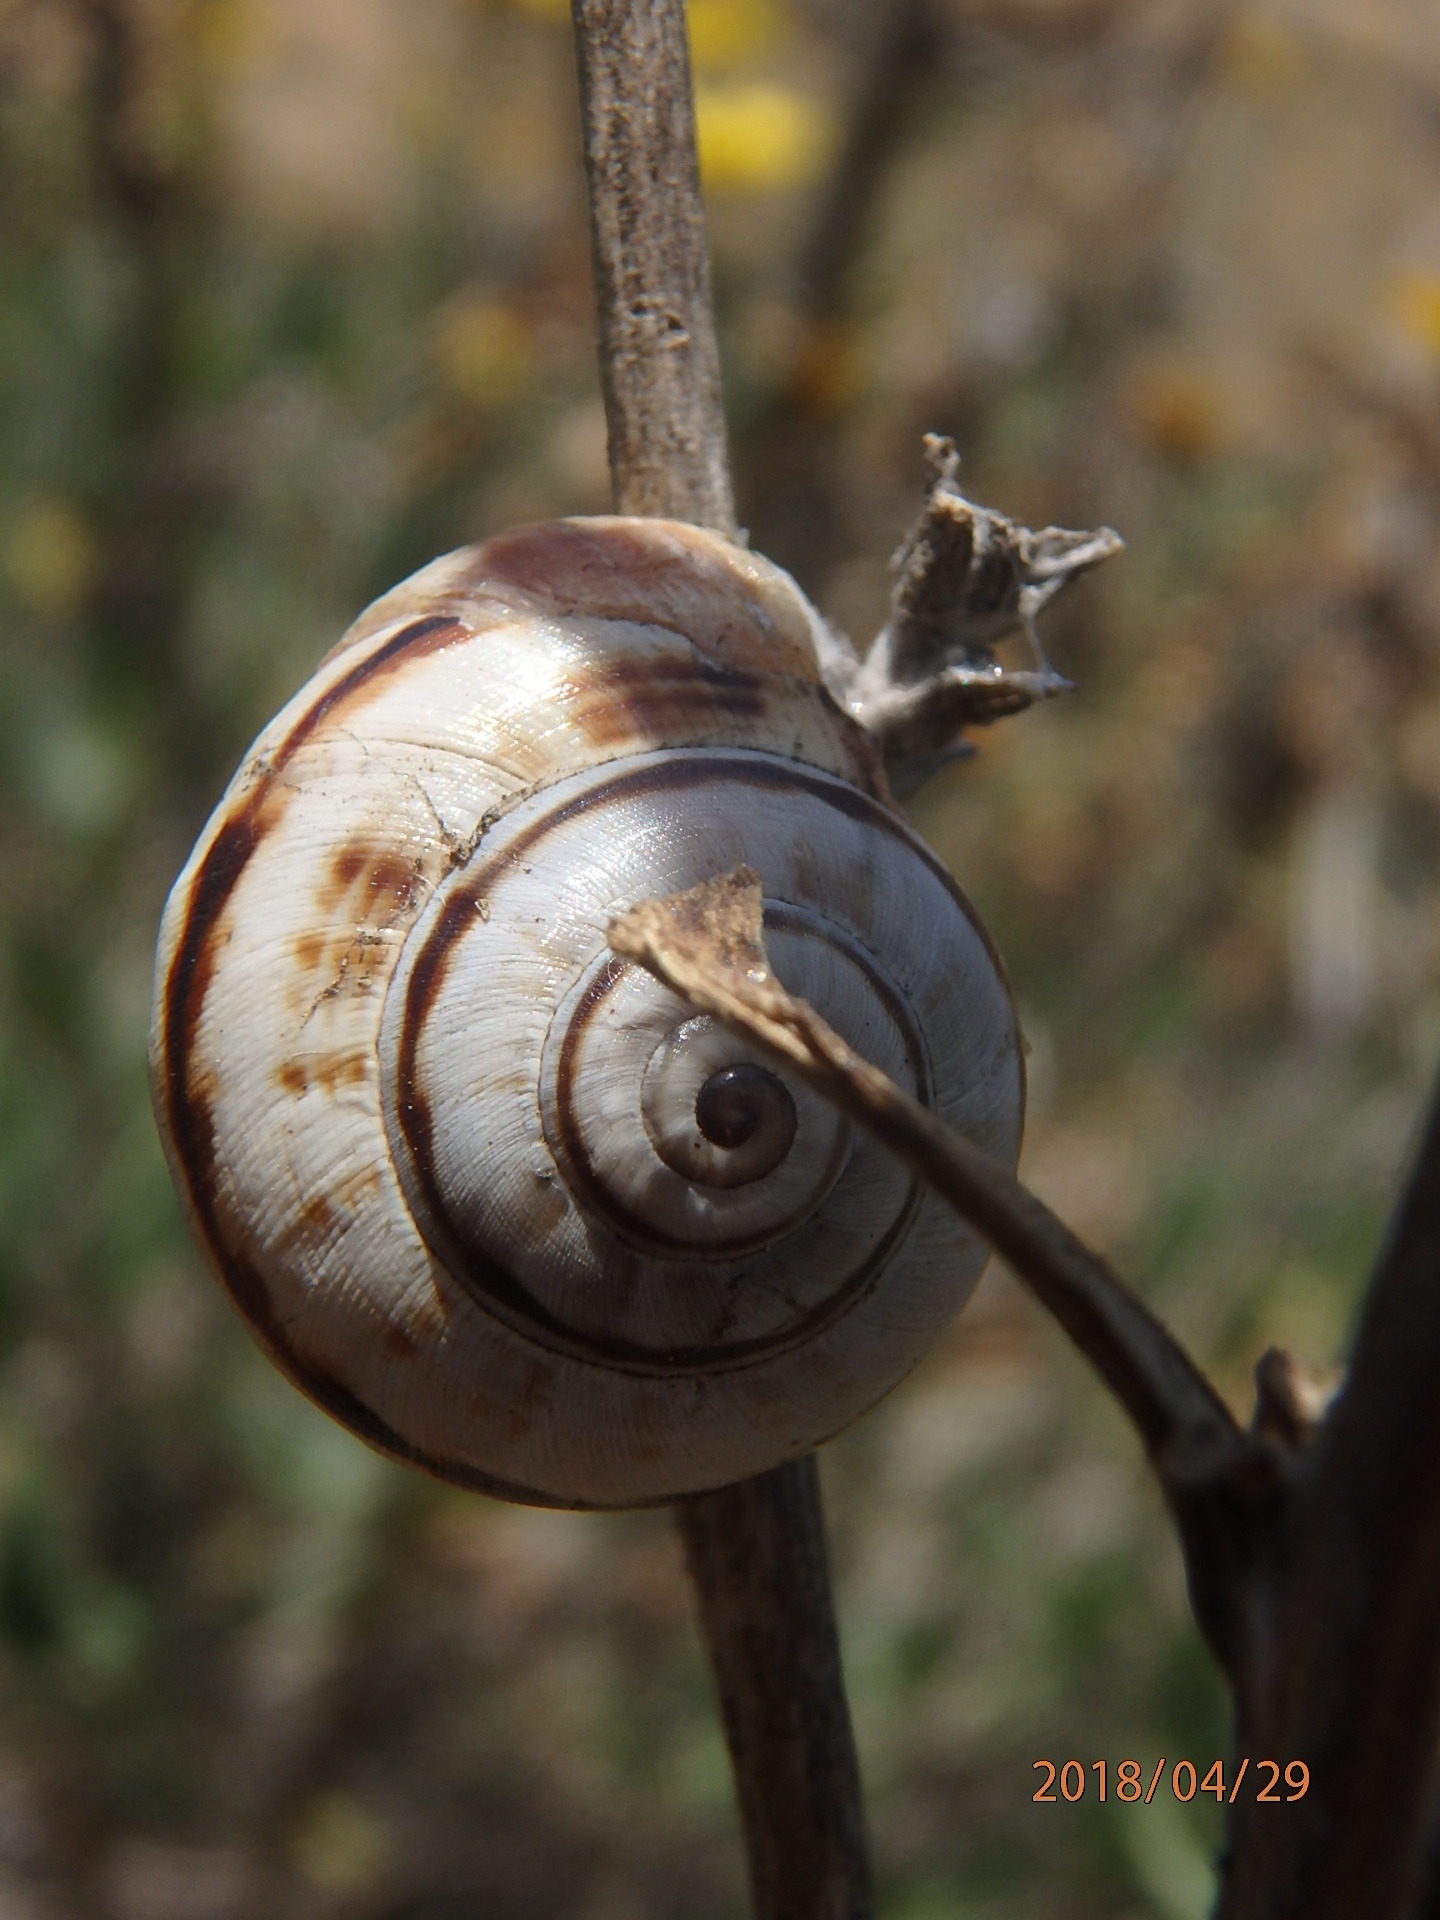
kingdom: Animalia
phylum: Mollusca
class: Gastropoda
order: Stylommatophora
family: Helicidae
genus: Theba
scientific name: Theba pisana
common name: White snail
